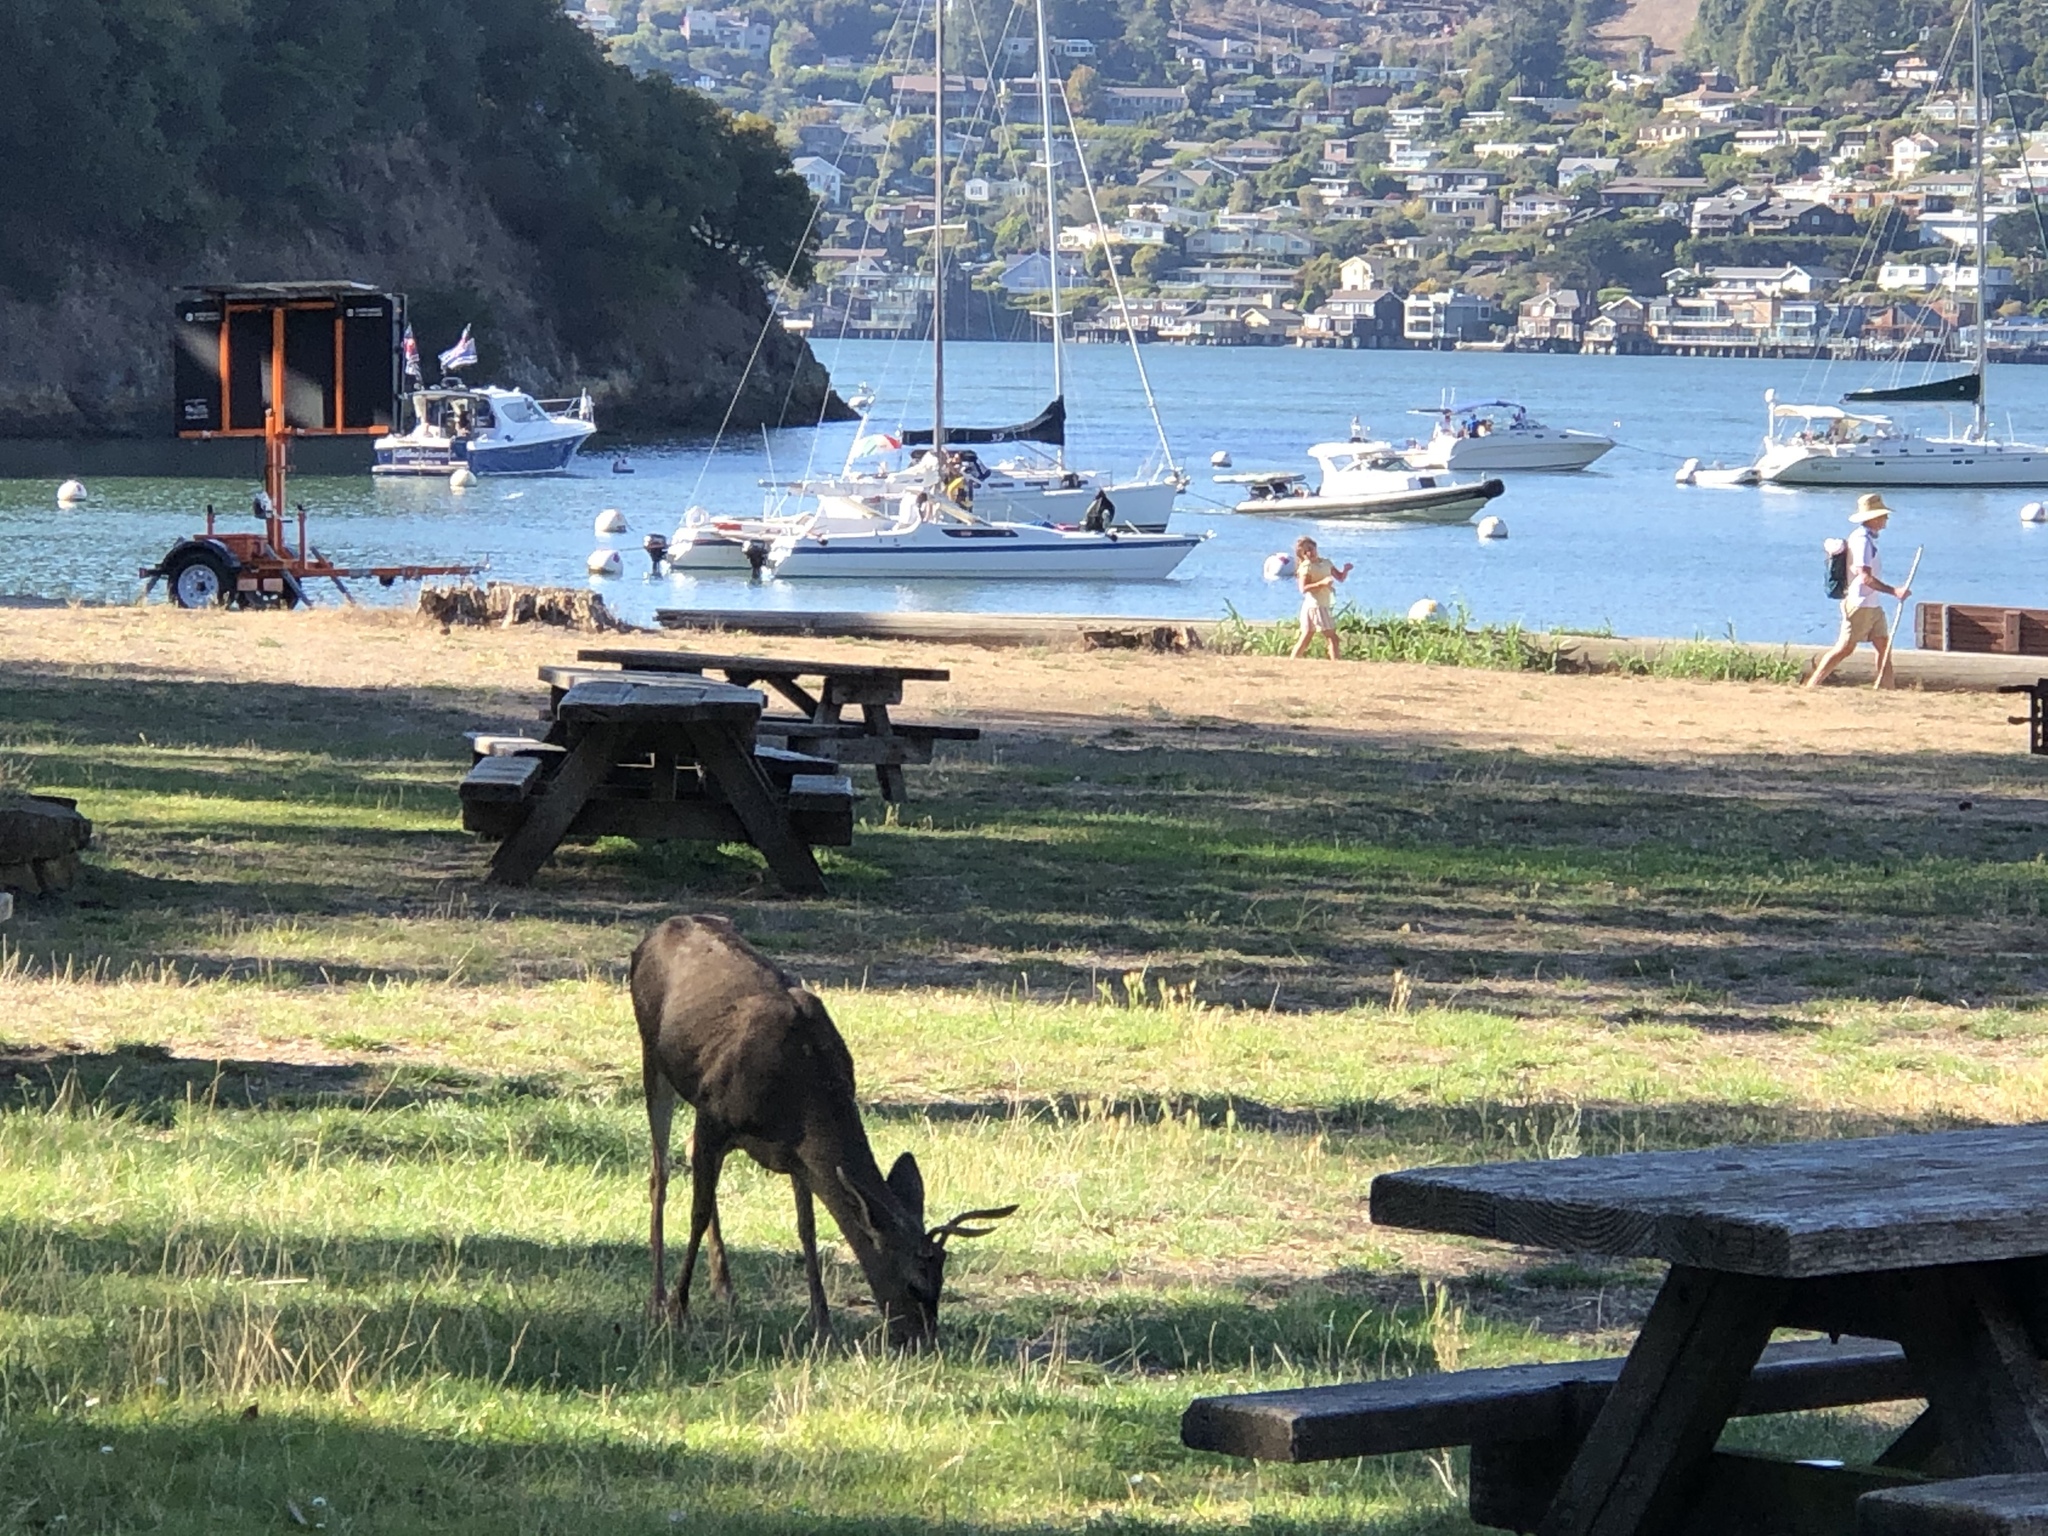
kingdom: Animalia
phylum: Chordata
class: Mammalia
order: Artiodactyla
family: Cervidae
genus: Odocoileus
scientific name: Odocoileus hemionus
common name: Mule deer
